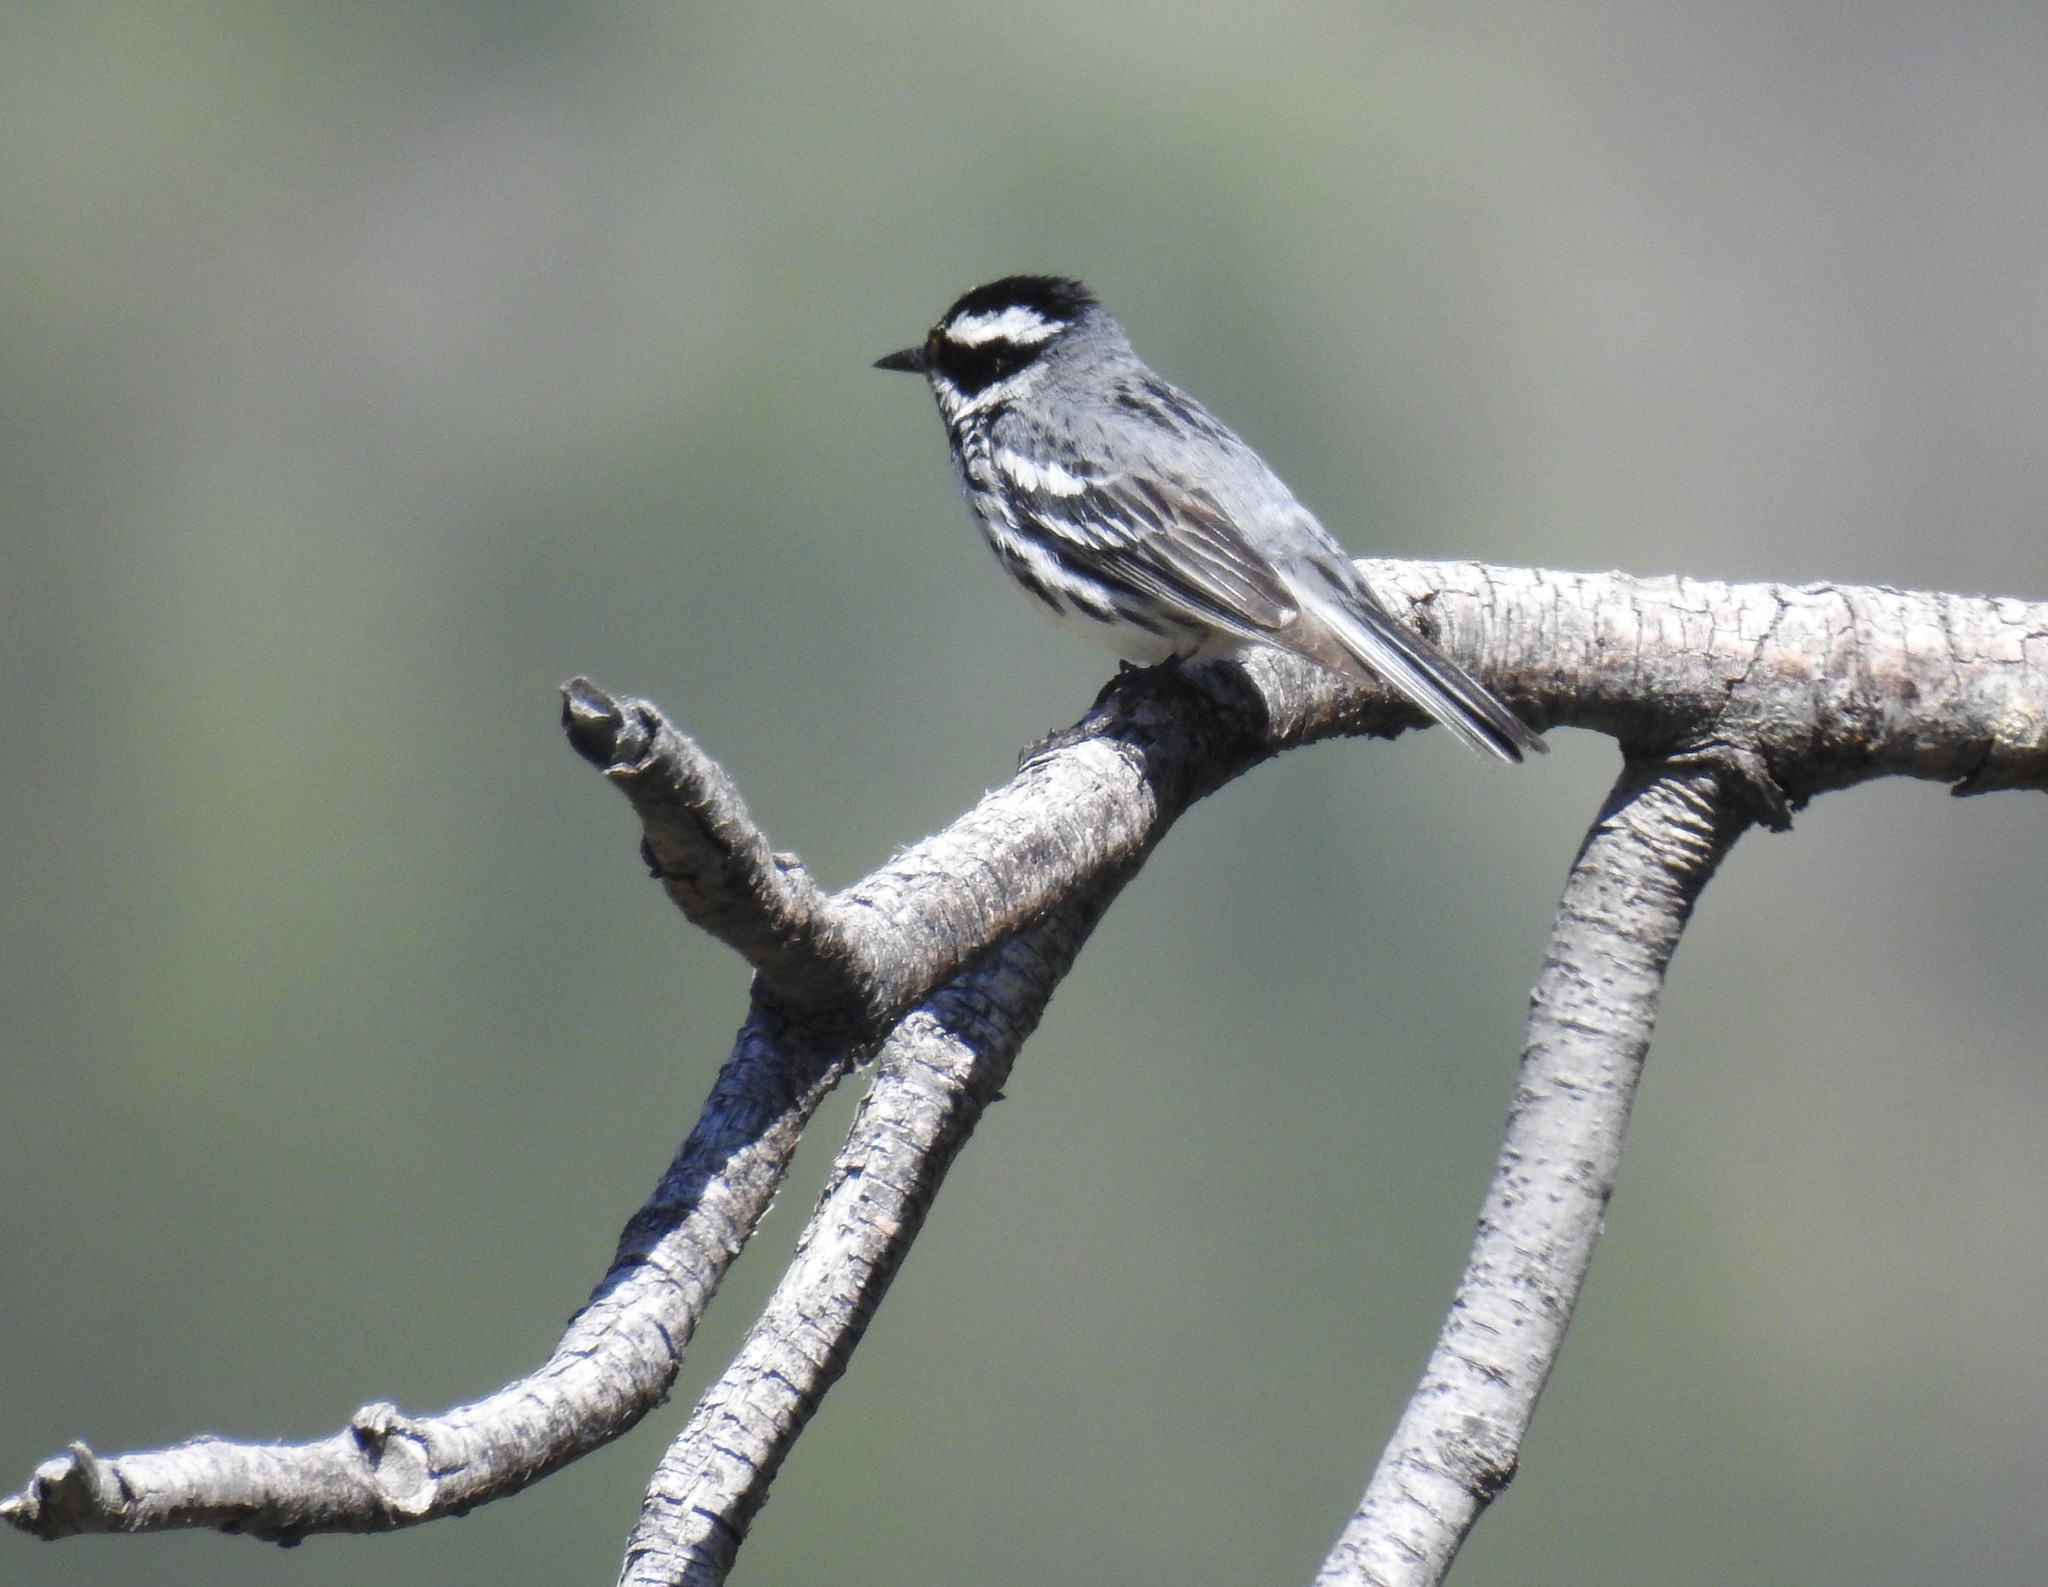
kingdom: Animalia
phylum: Chordata
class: Aves
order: Passeriformes
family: Parulidae
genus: Setophaga
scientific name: Setophaga nigrescens
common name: Black-throated gray warbler
